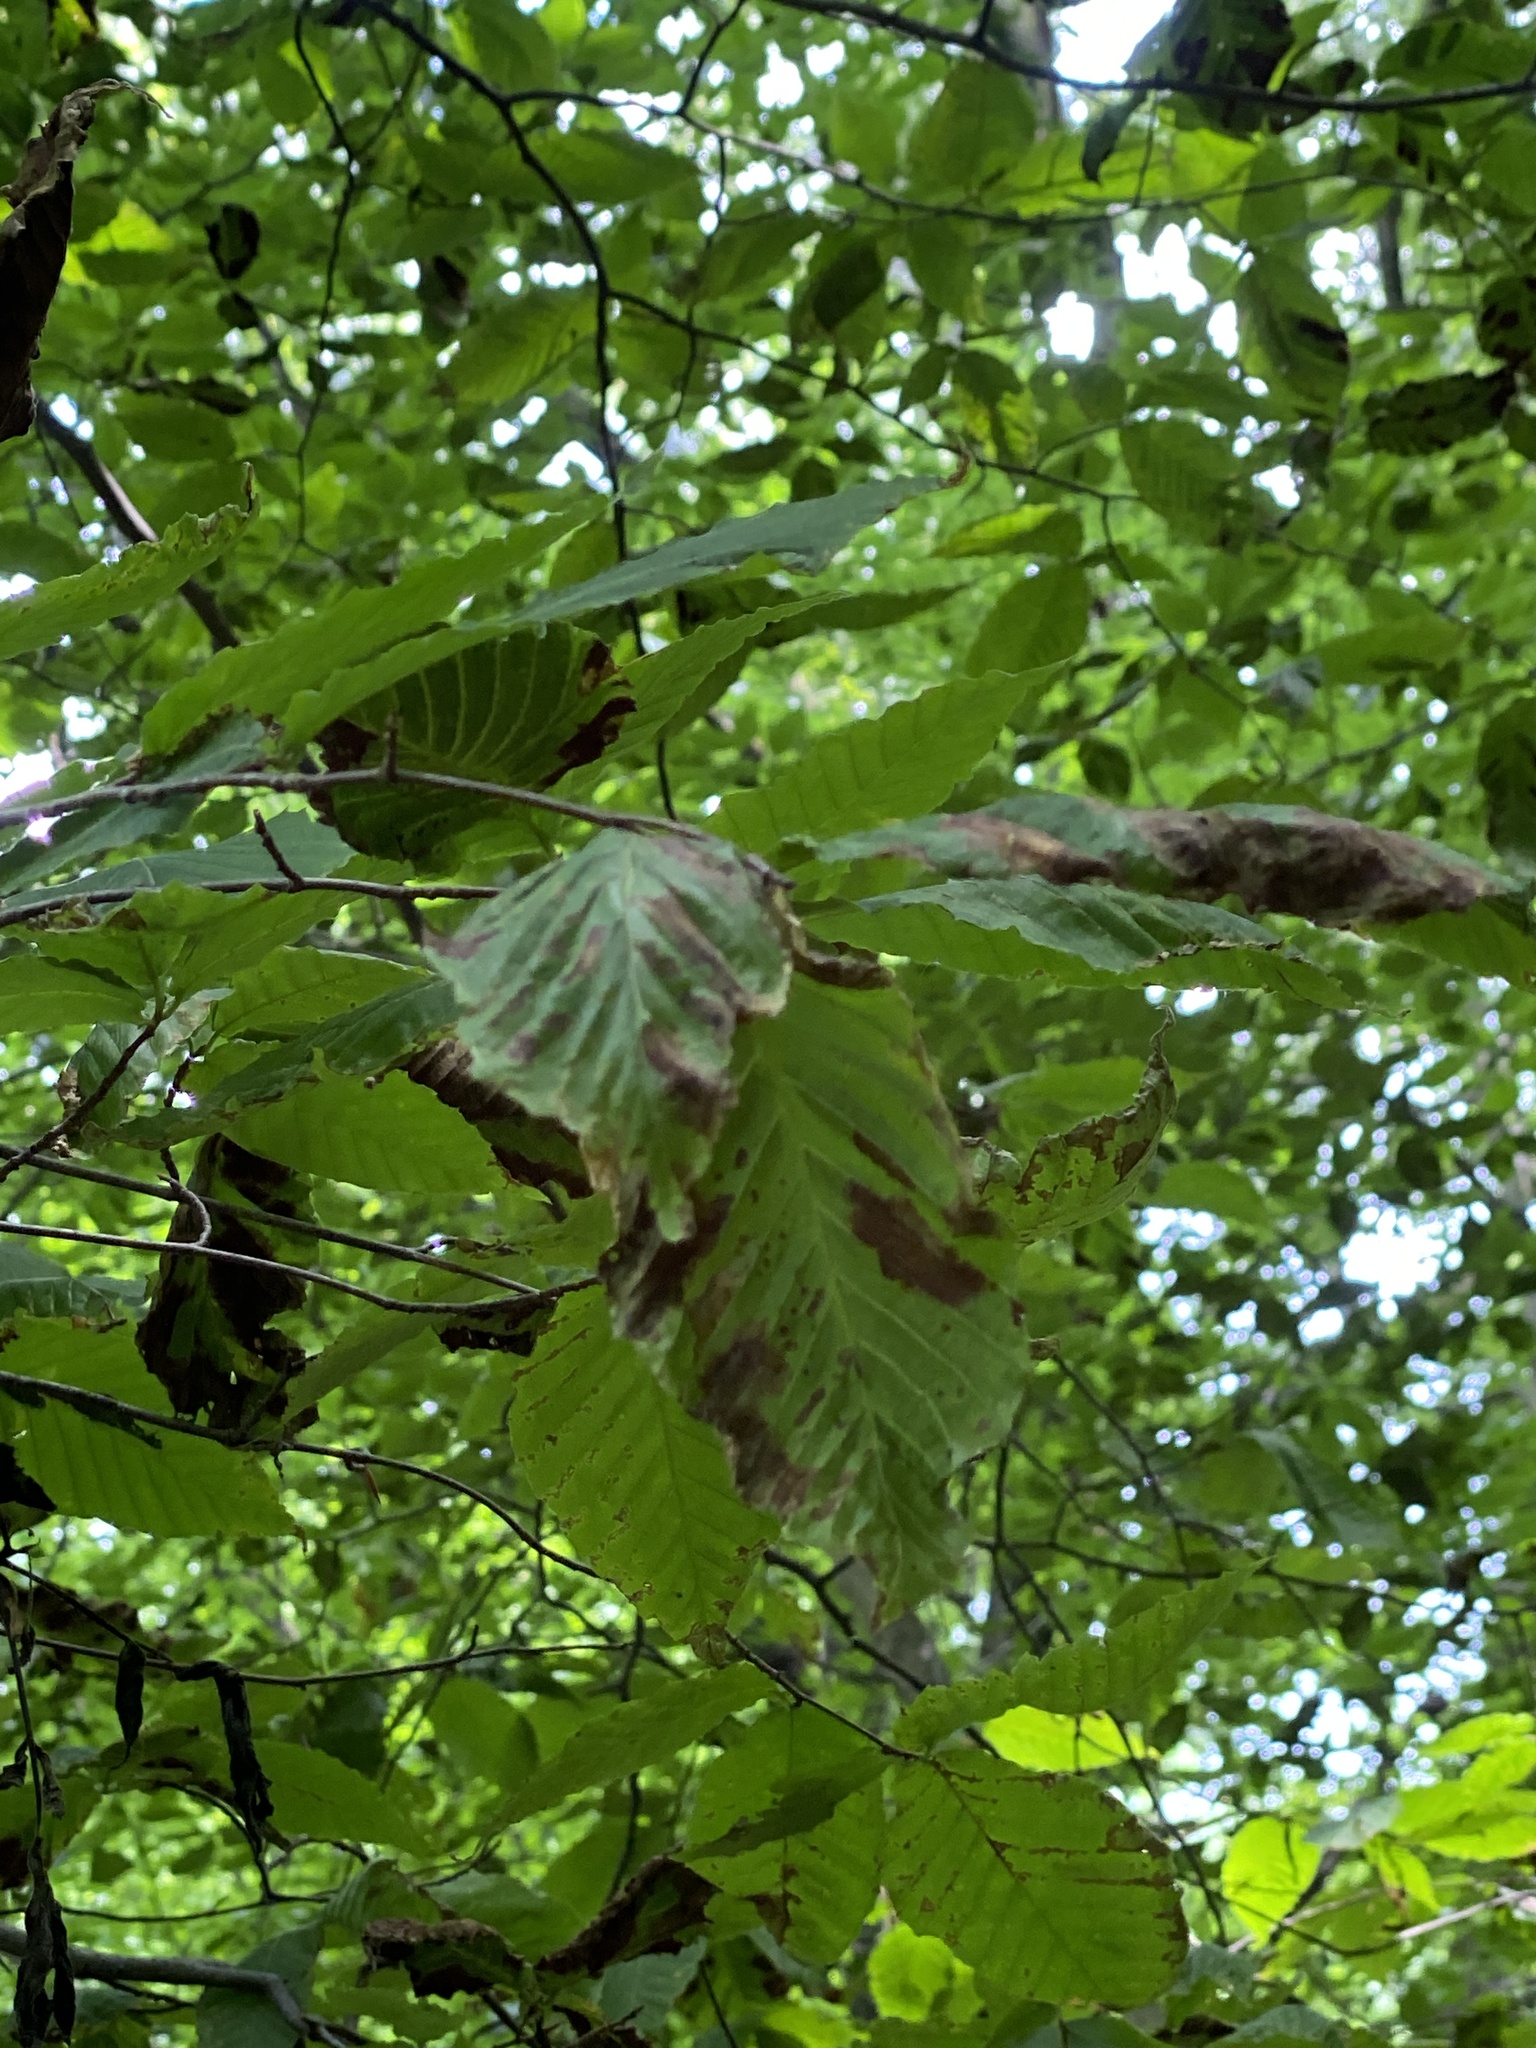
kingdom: Plantae
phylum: Tracheophyta
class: Magnoliopsida
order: Fagales
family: Fagaceae
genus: Fagus
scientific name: Fagus grandifolia
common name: American beech
